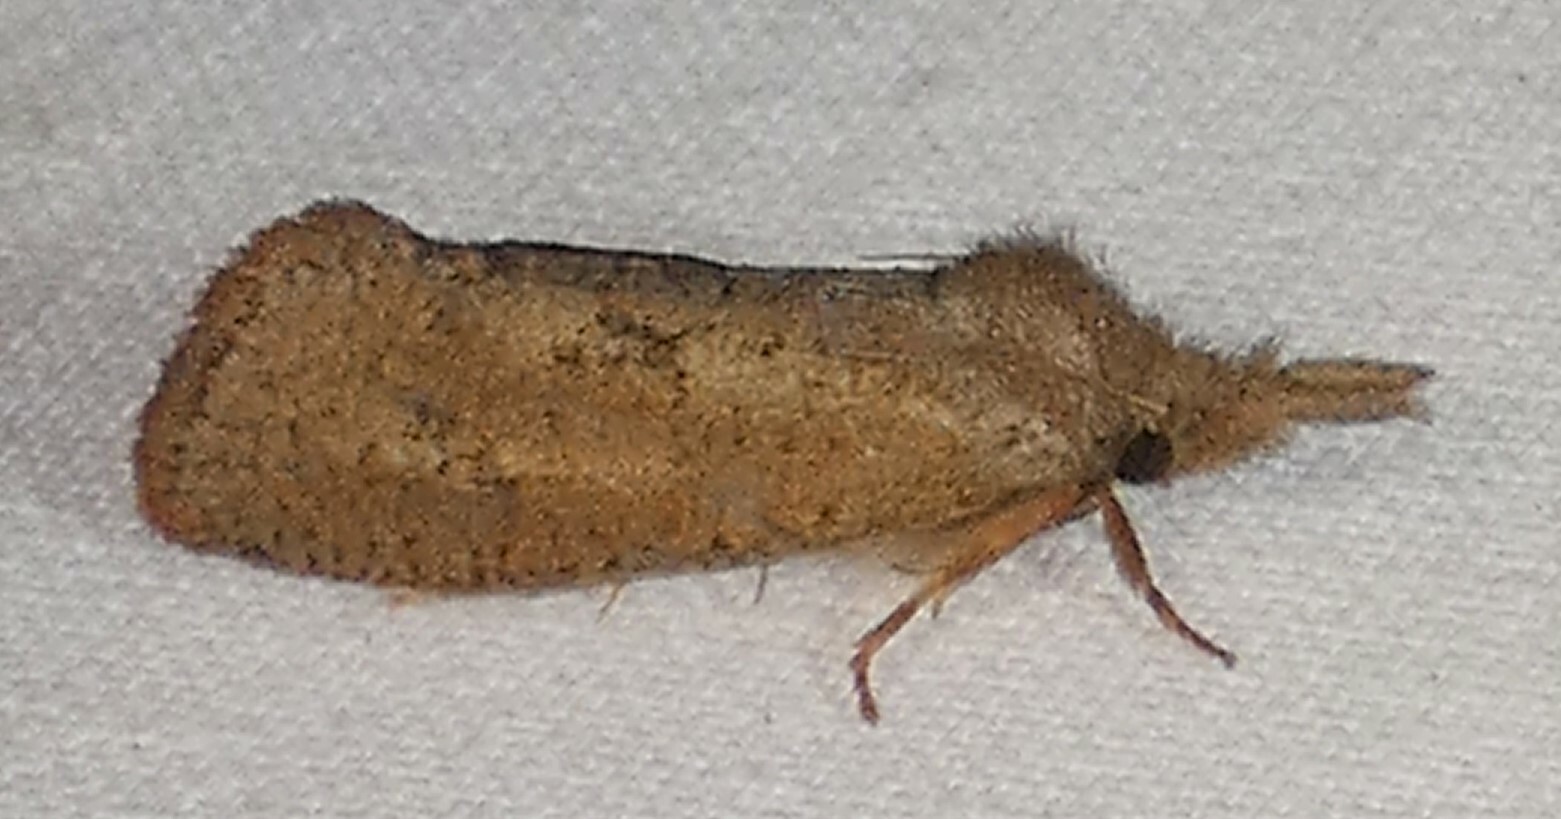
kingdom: Animalia
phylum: Arthropoda
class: Insecta
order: Lepidoptera
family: Tineidae
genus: Acrolophus
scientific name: Acrolophus plumifrontella
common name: Eastern grass tubeworm moth
